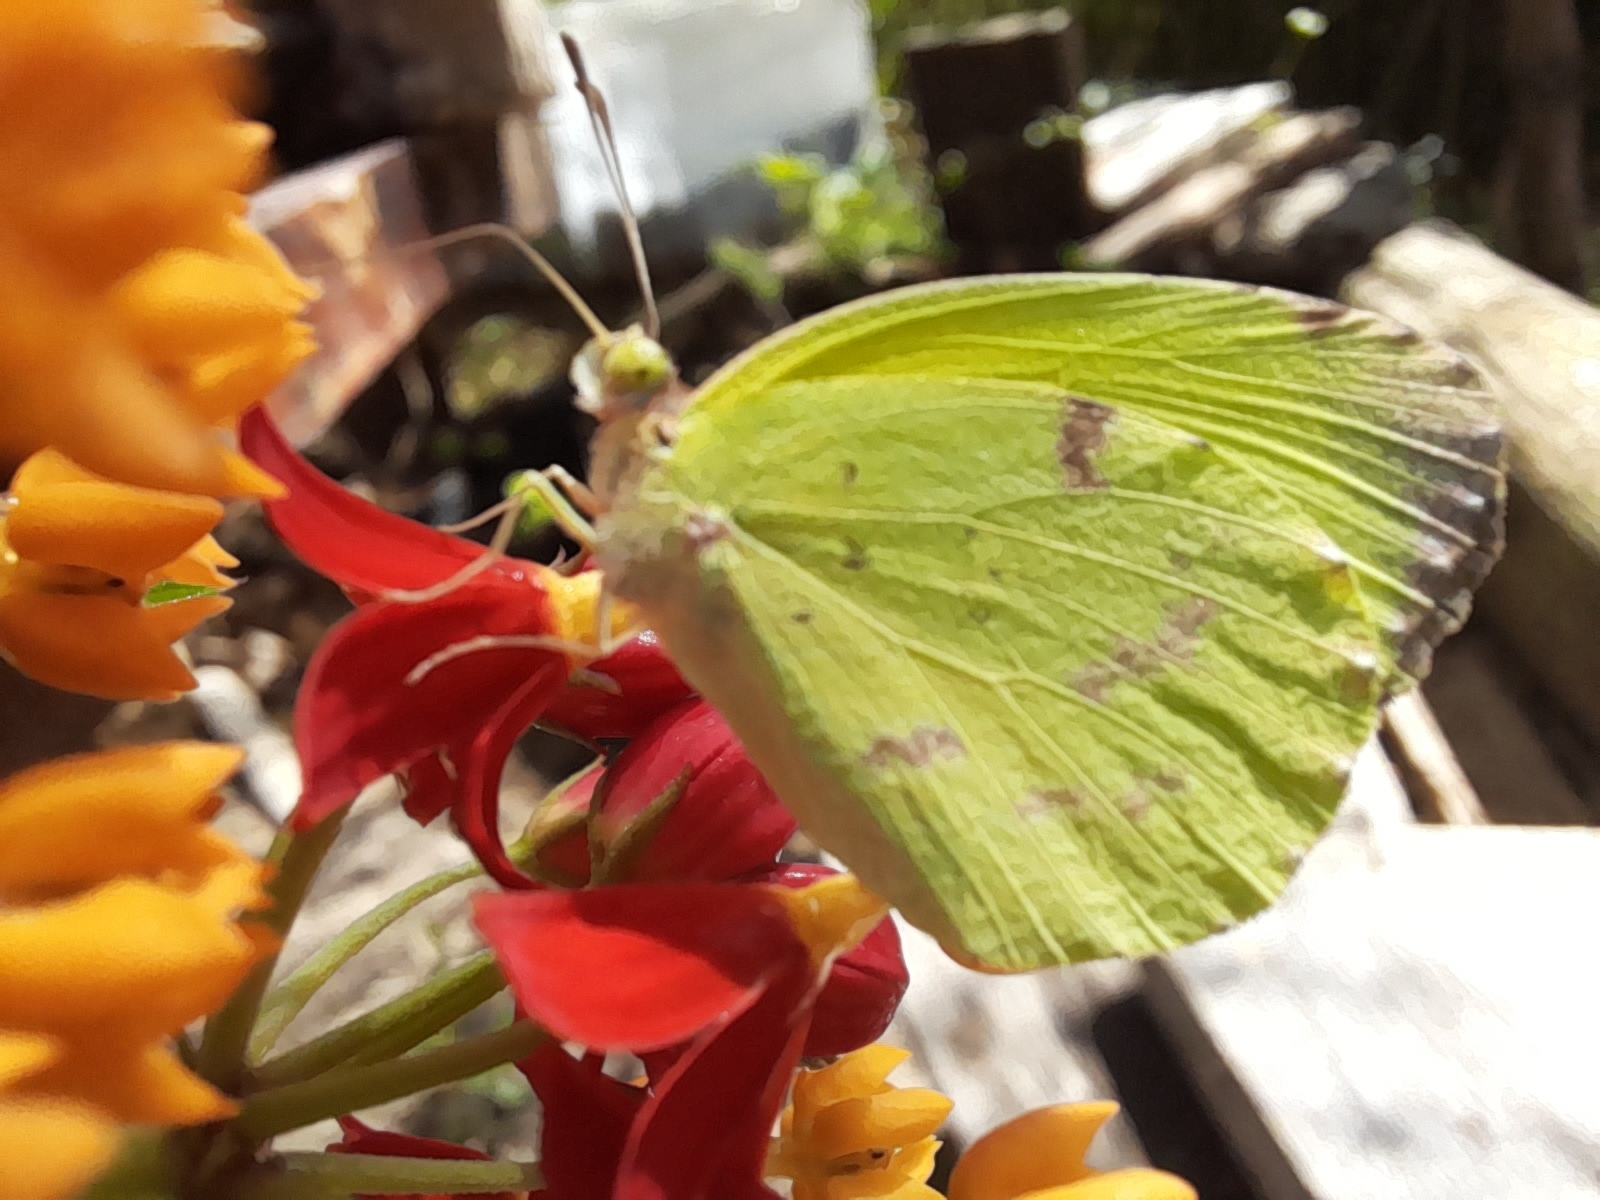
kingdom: Animalia
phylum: Arthropoda
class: Insecta
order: Lepidoptera
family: Pieridae
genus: Teriocolias
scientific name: Teriocolias
